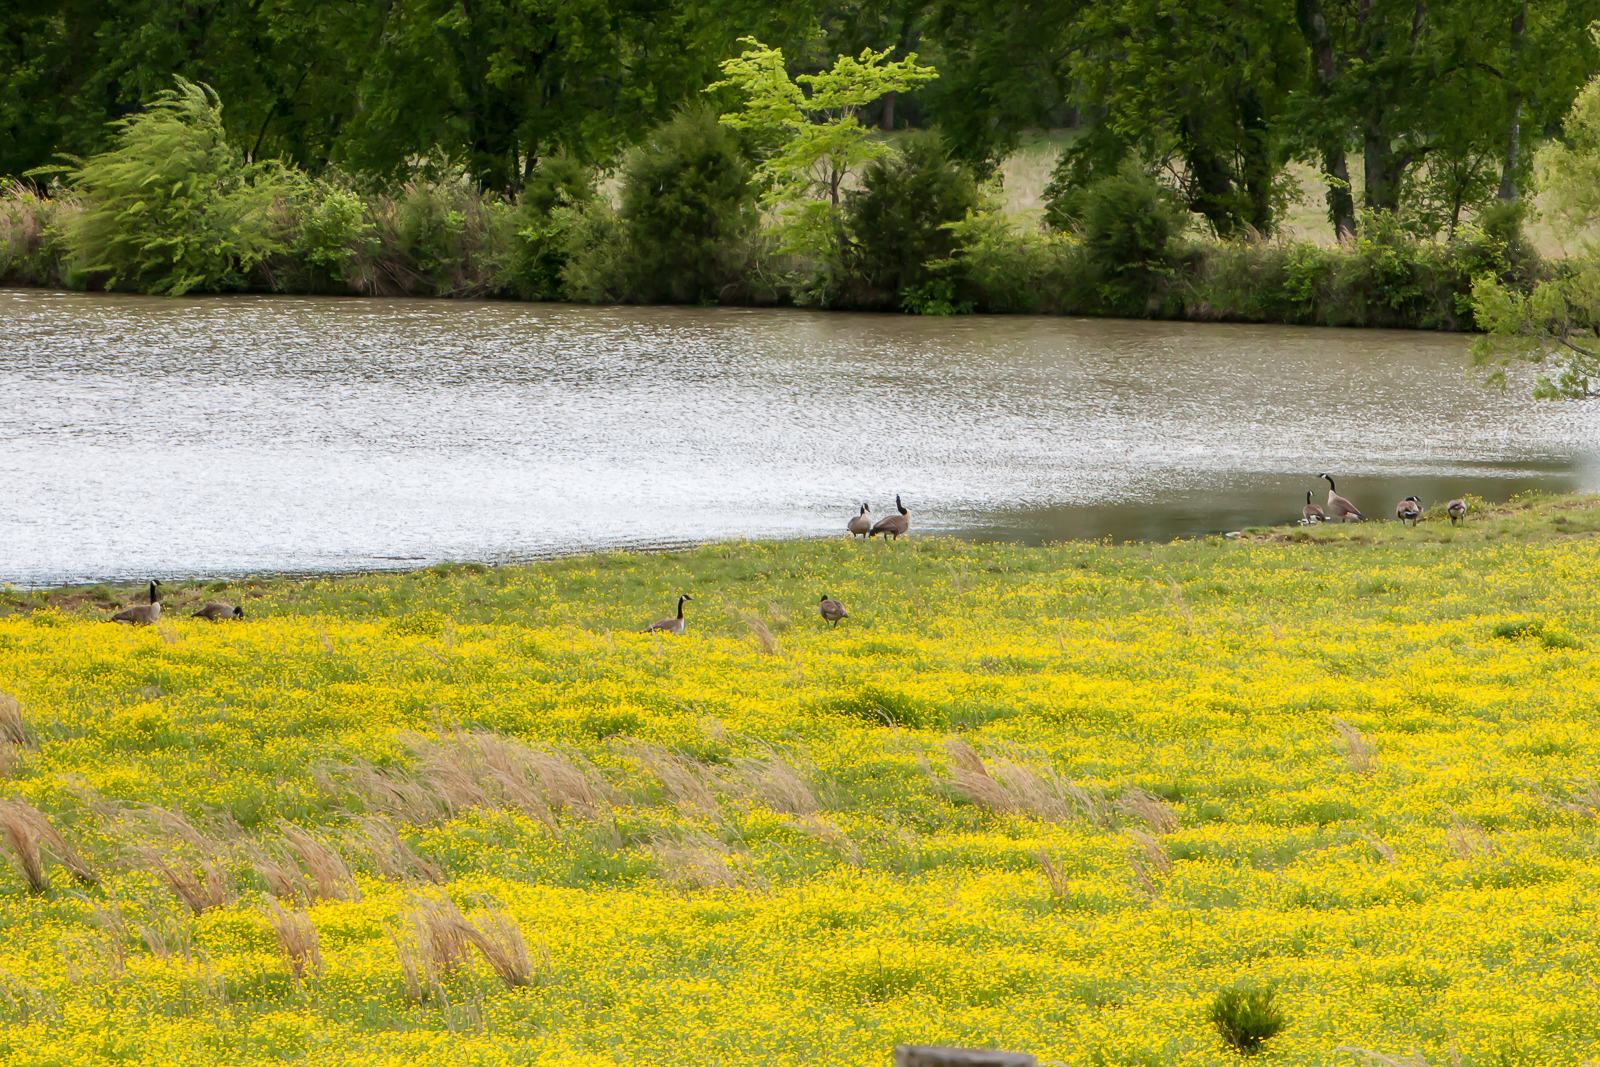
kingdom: Animalia
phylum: Chordata
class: Aves
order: Anseriformes
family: Anatidae
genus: Branta
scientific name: Branta canadensis
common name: Canada goose
